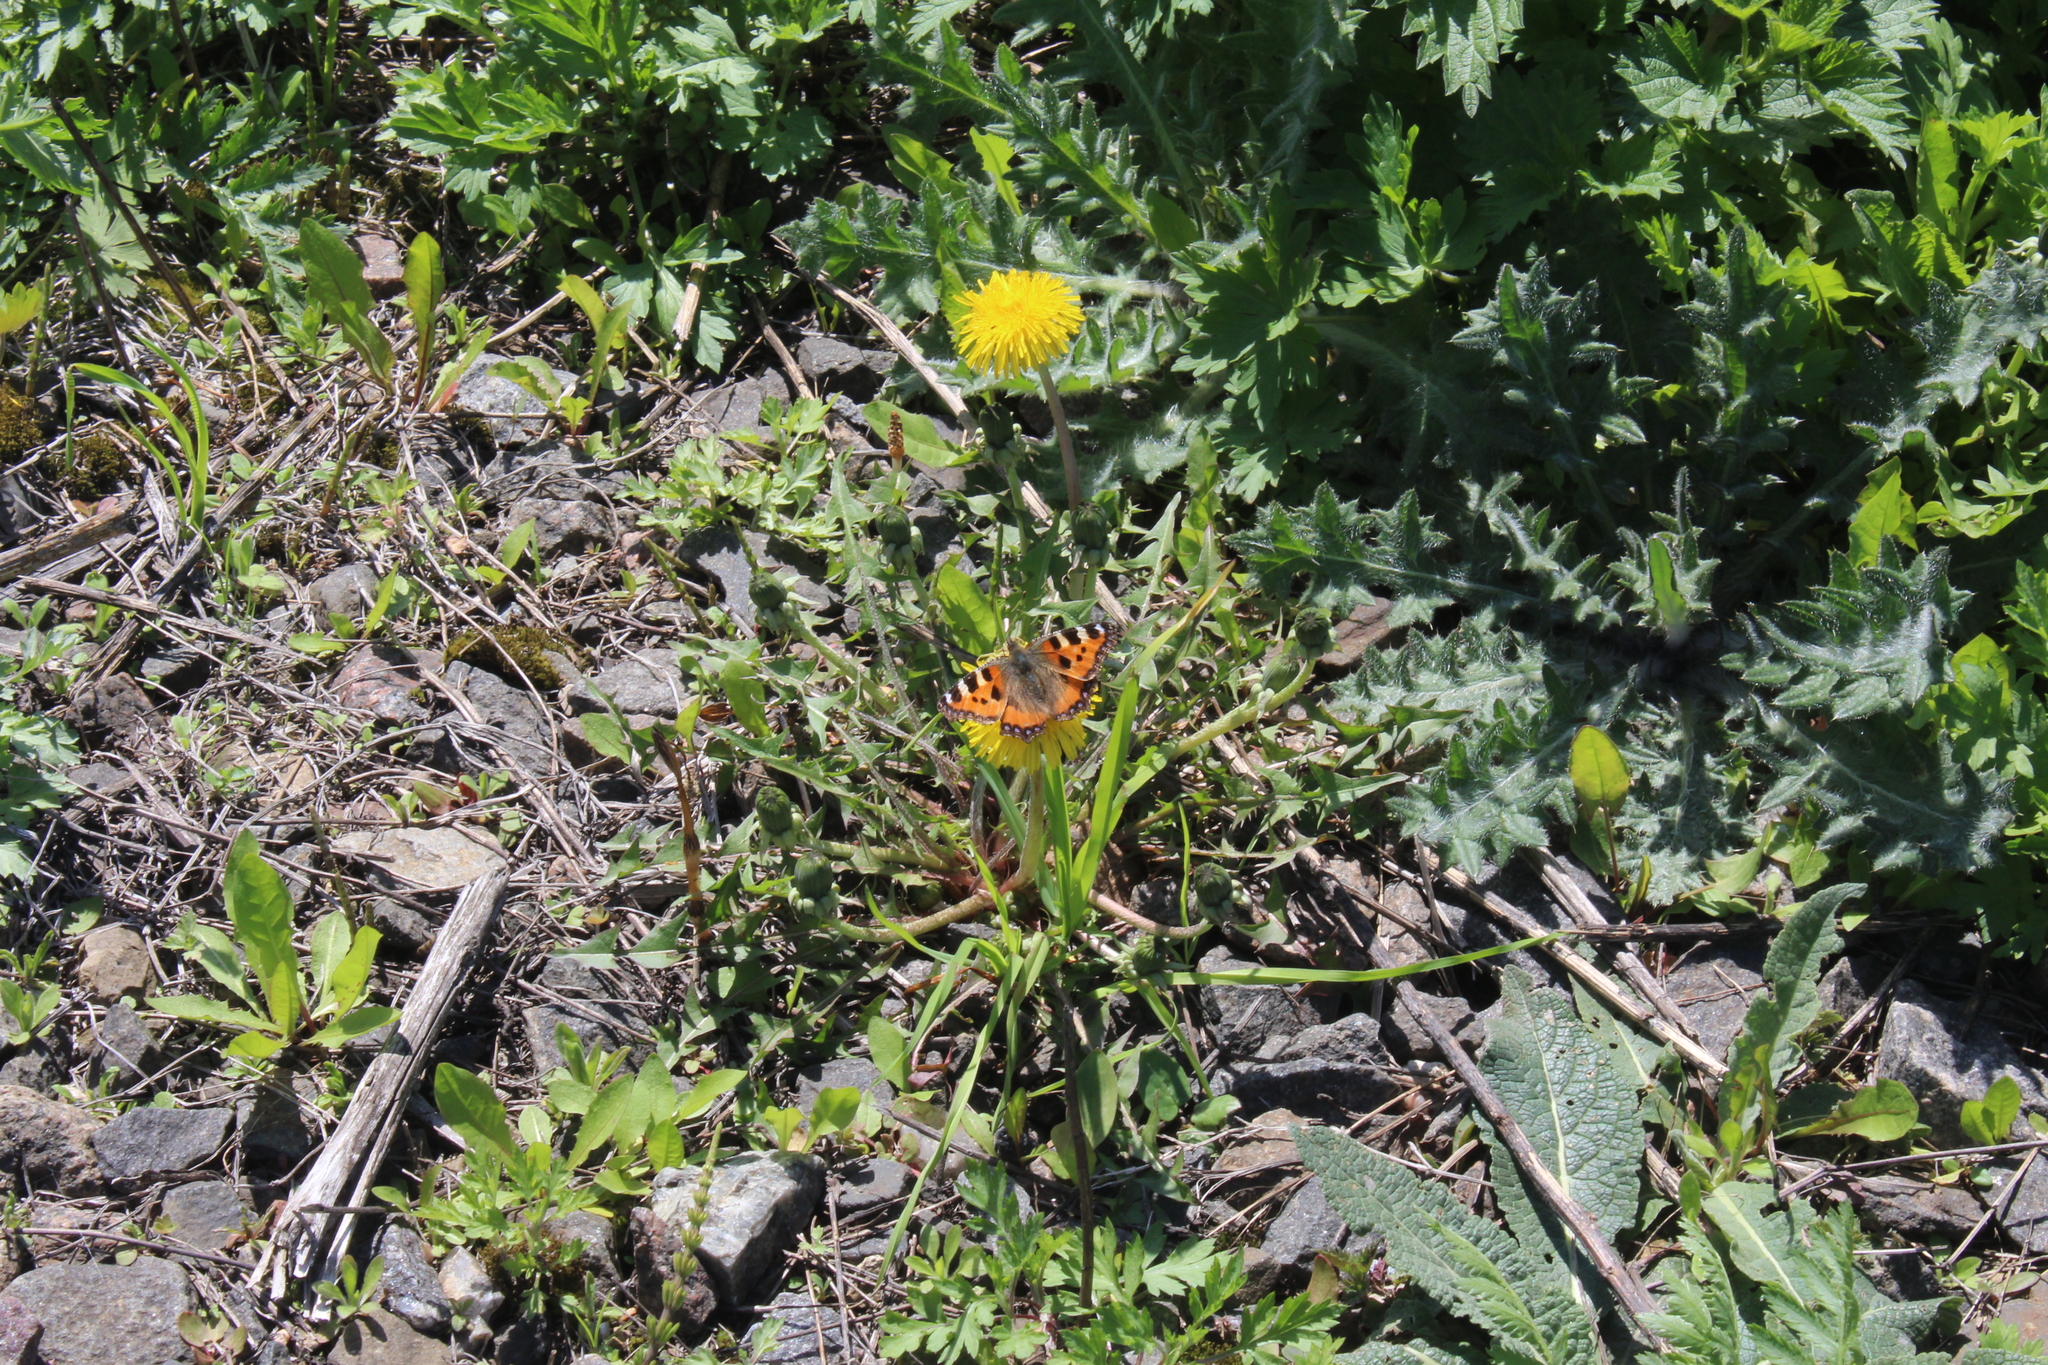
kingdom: Animalia
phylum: Arthropoda
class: Insecta
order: Lepidoptera
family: Nymphalidae
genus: Aglais
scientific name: Aglais urticae
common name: Small tortoiseshell
